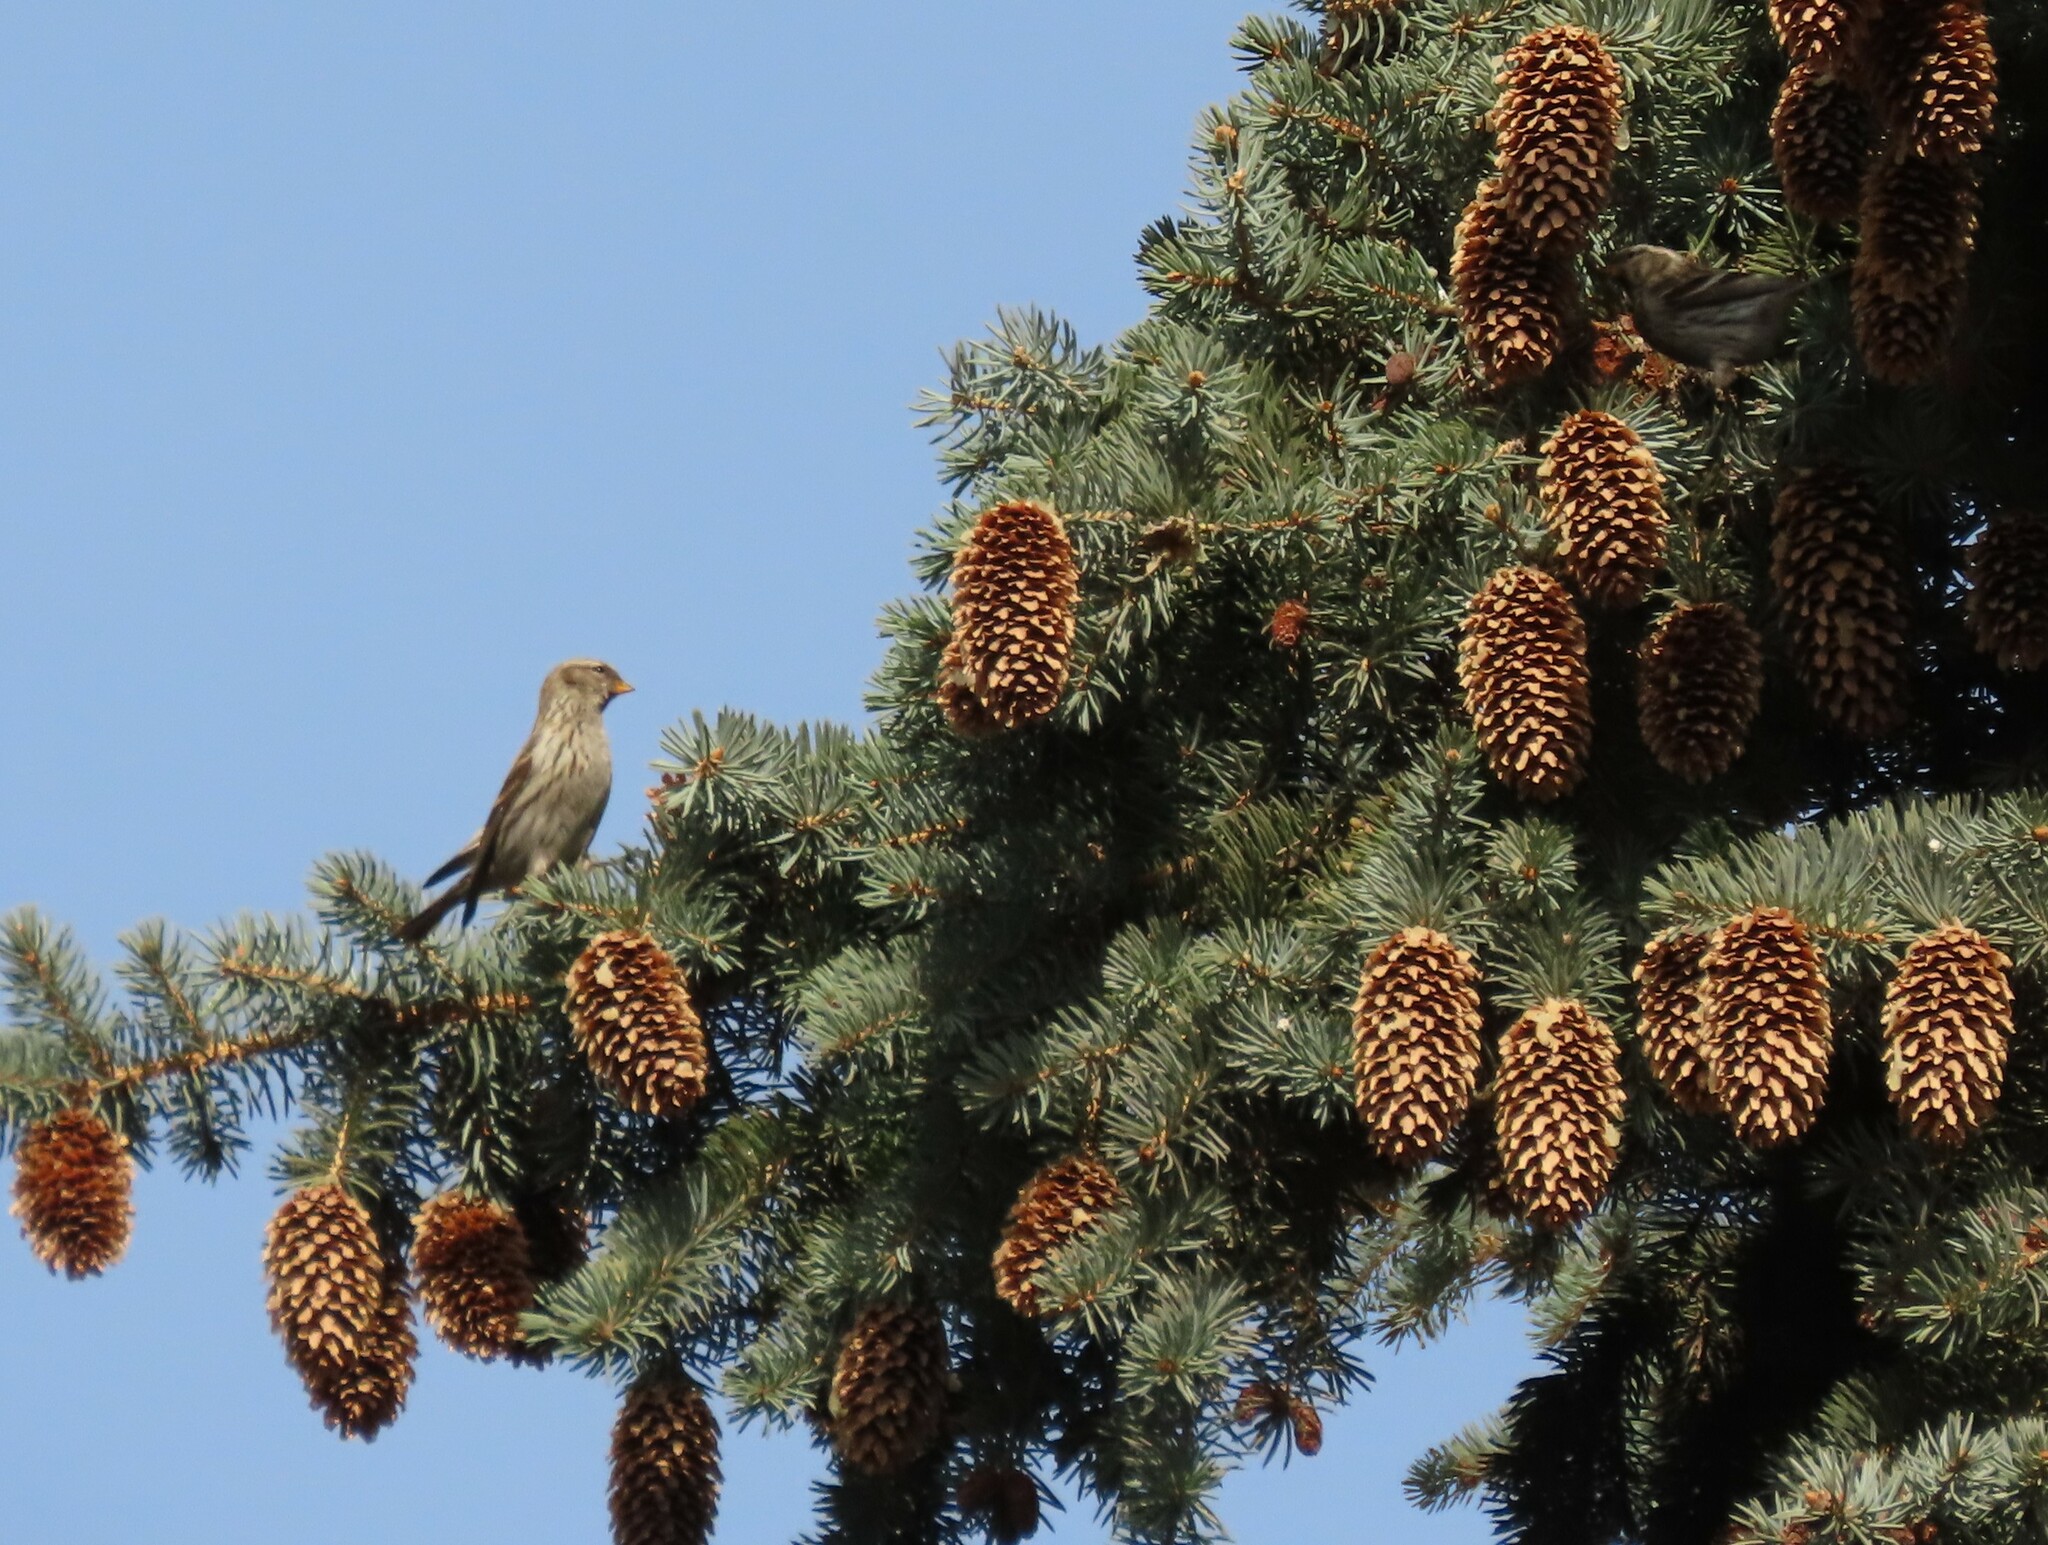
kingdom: Animalia
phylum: Chordata
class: Aves
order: Passeriformes
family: Fringillidae
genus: Acanthis
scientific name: Acanthis flammea
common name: Common redpoll
